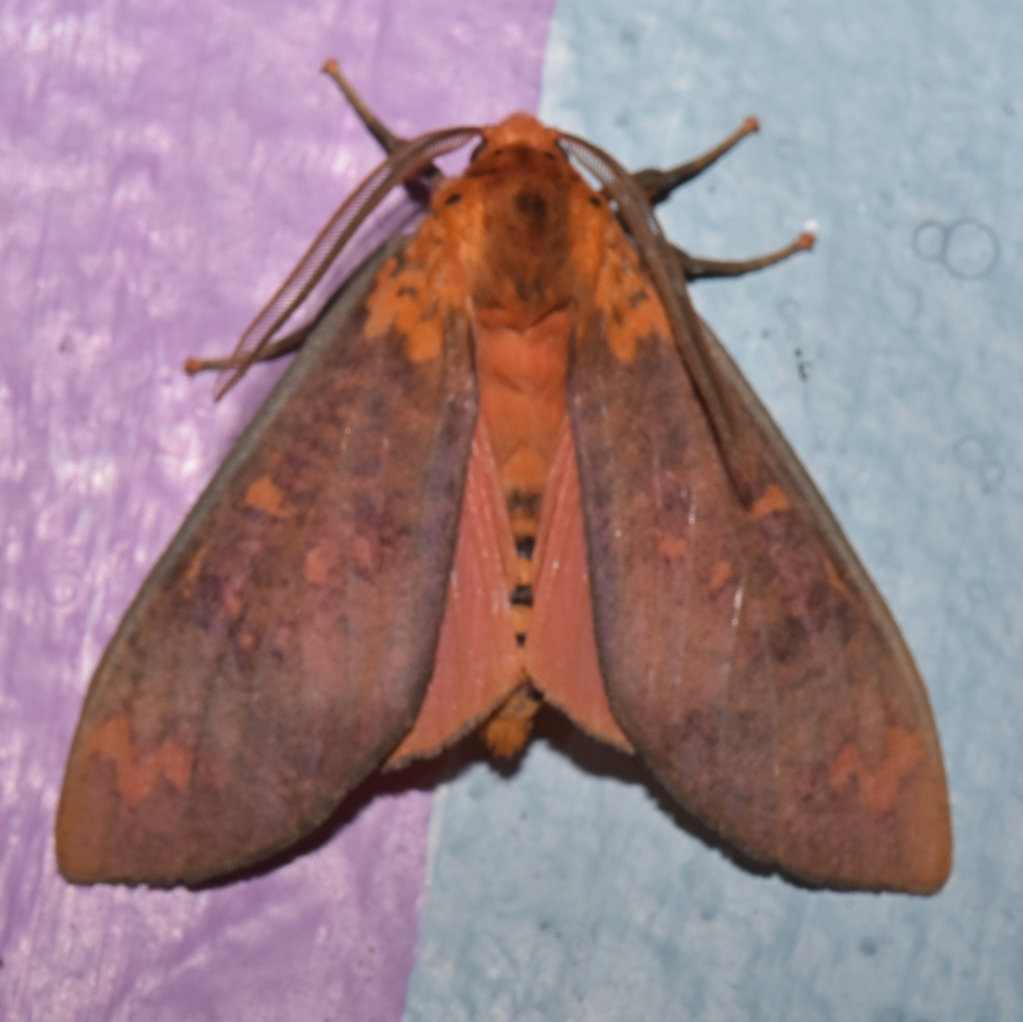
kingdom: Animalia
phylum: Arthropoda
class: Insecta
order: Lepidoptera
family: Erebidae
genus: Ammalo
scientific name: Ammalo helops
